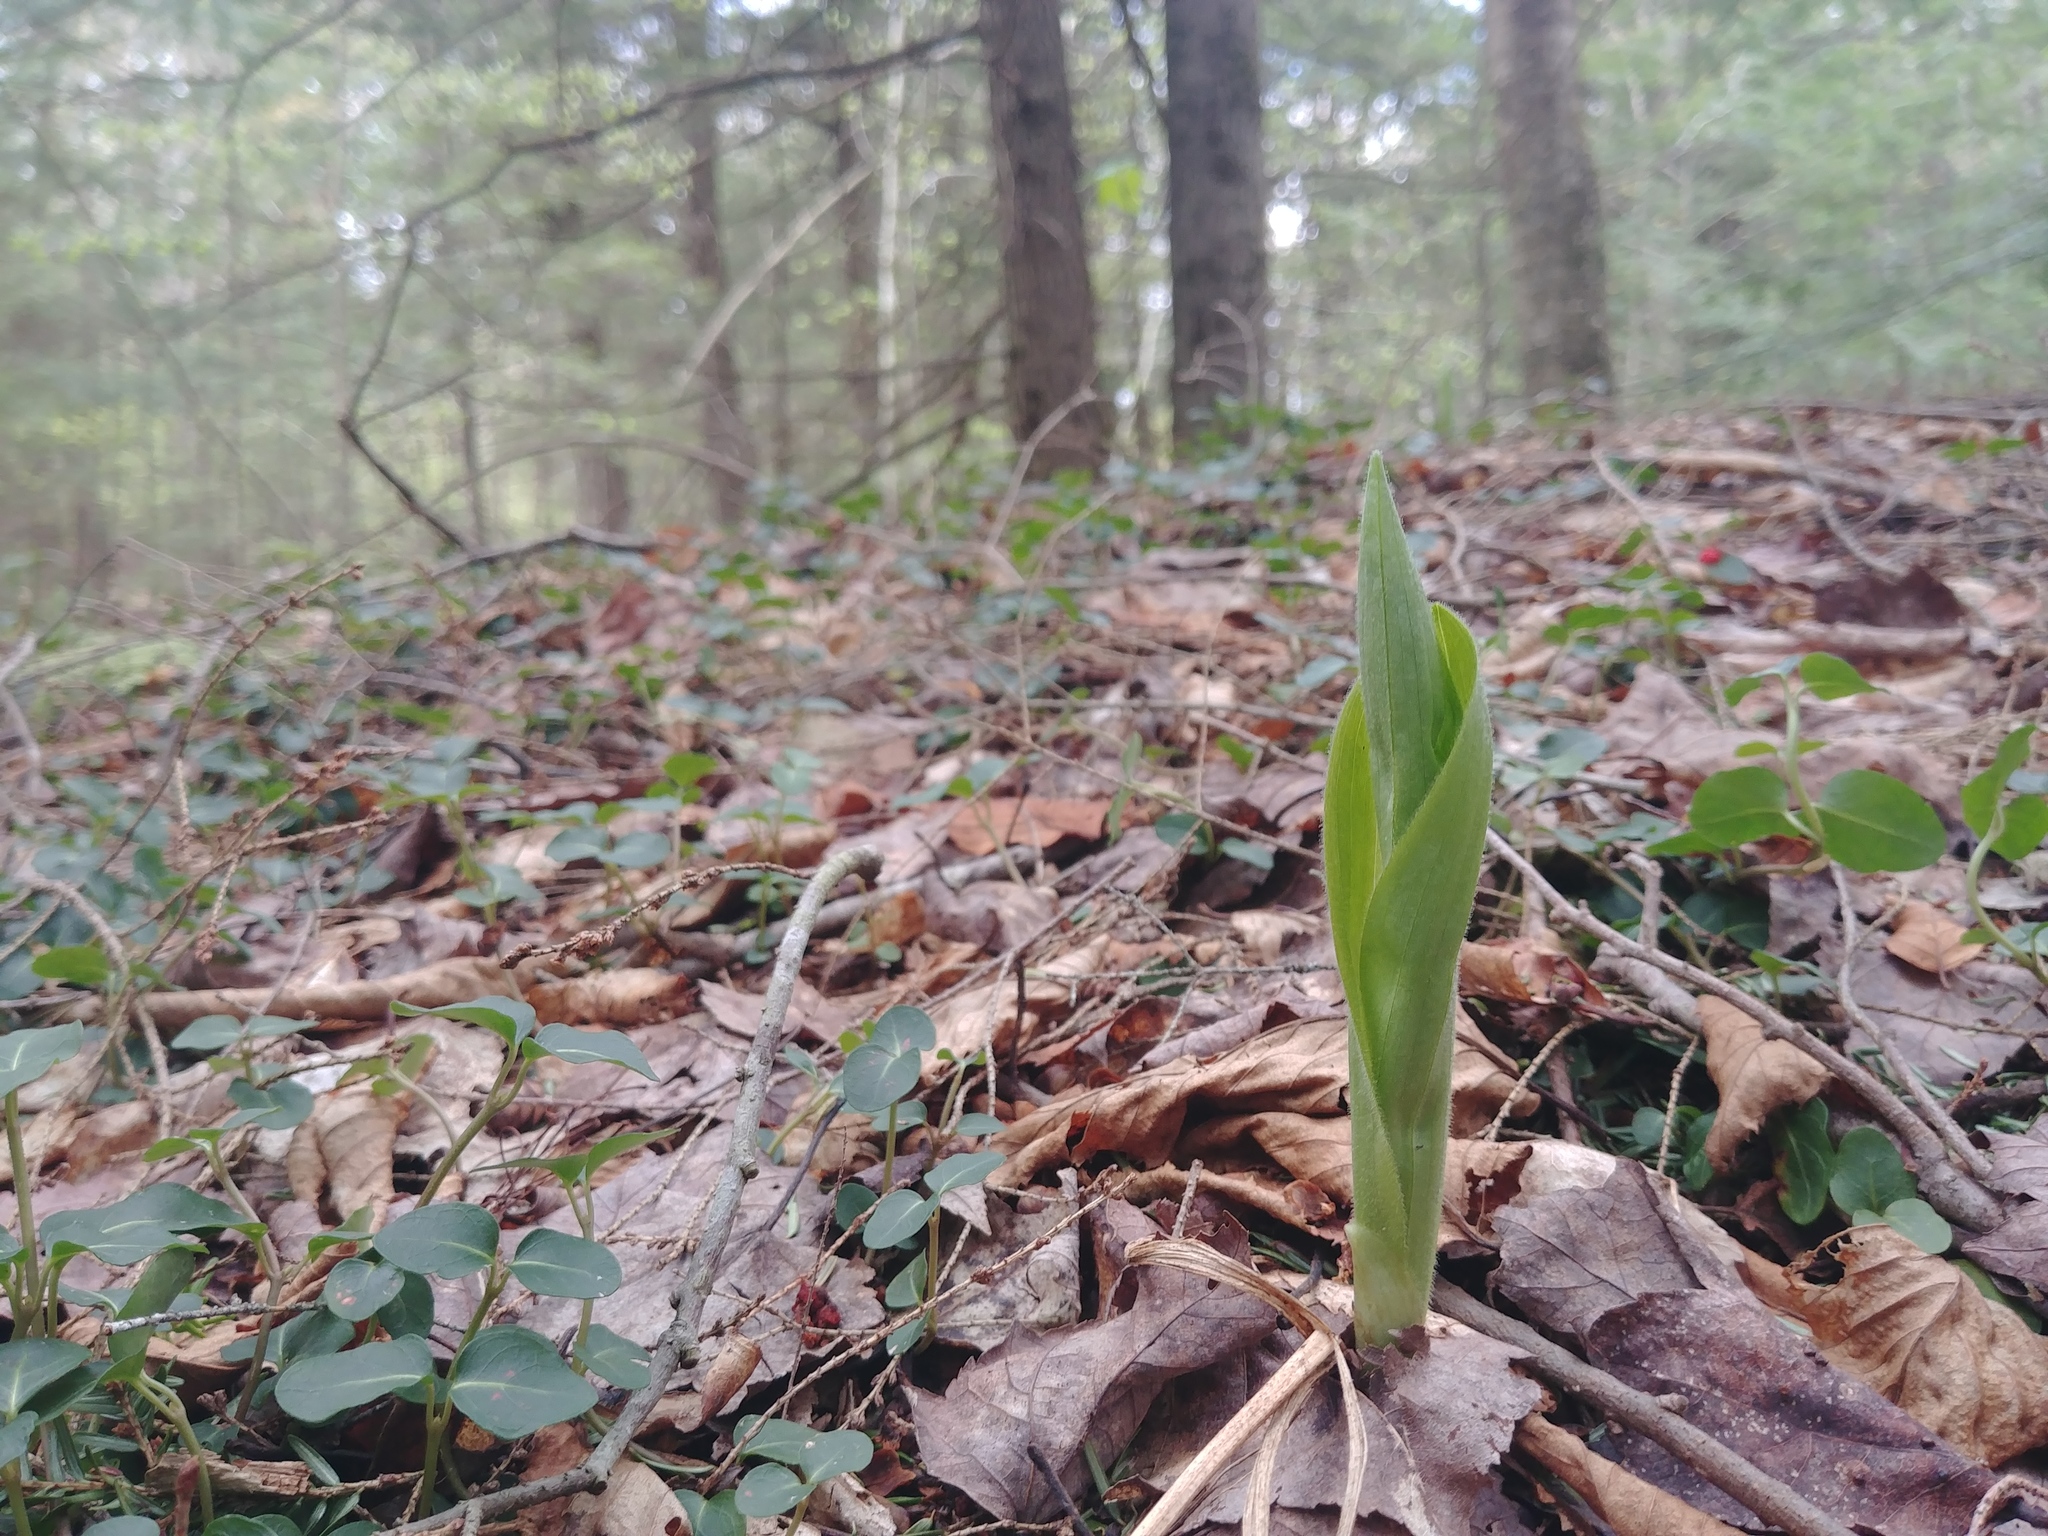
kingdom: Plantae
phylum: Tracheophyta
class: Liliopsida
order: Asparagales
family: Orchidaceae
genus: Cypripedium
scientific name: Cypripedium acaule
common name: Pink lady's-slipper
